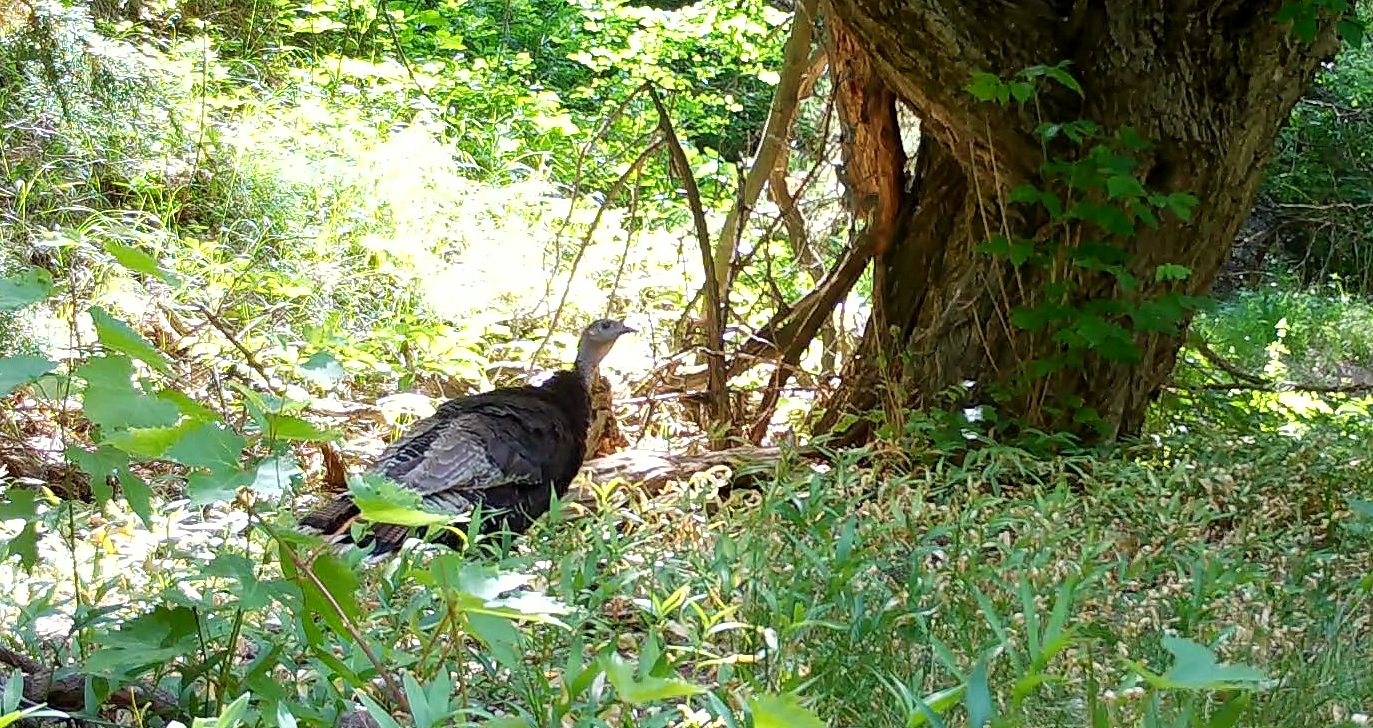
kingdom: Animalia
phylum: Chordata
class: Aves
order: Galliformes
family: Phasianidae
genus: Meleagris
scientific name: Meleagris gallopavo
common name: Wild turkey
